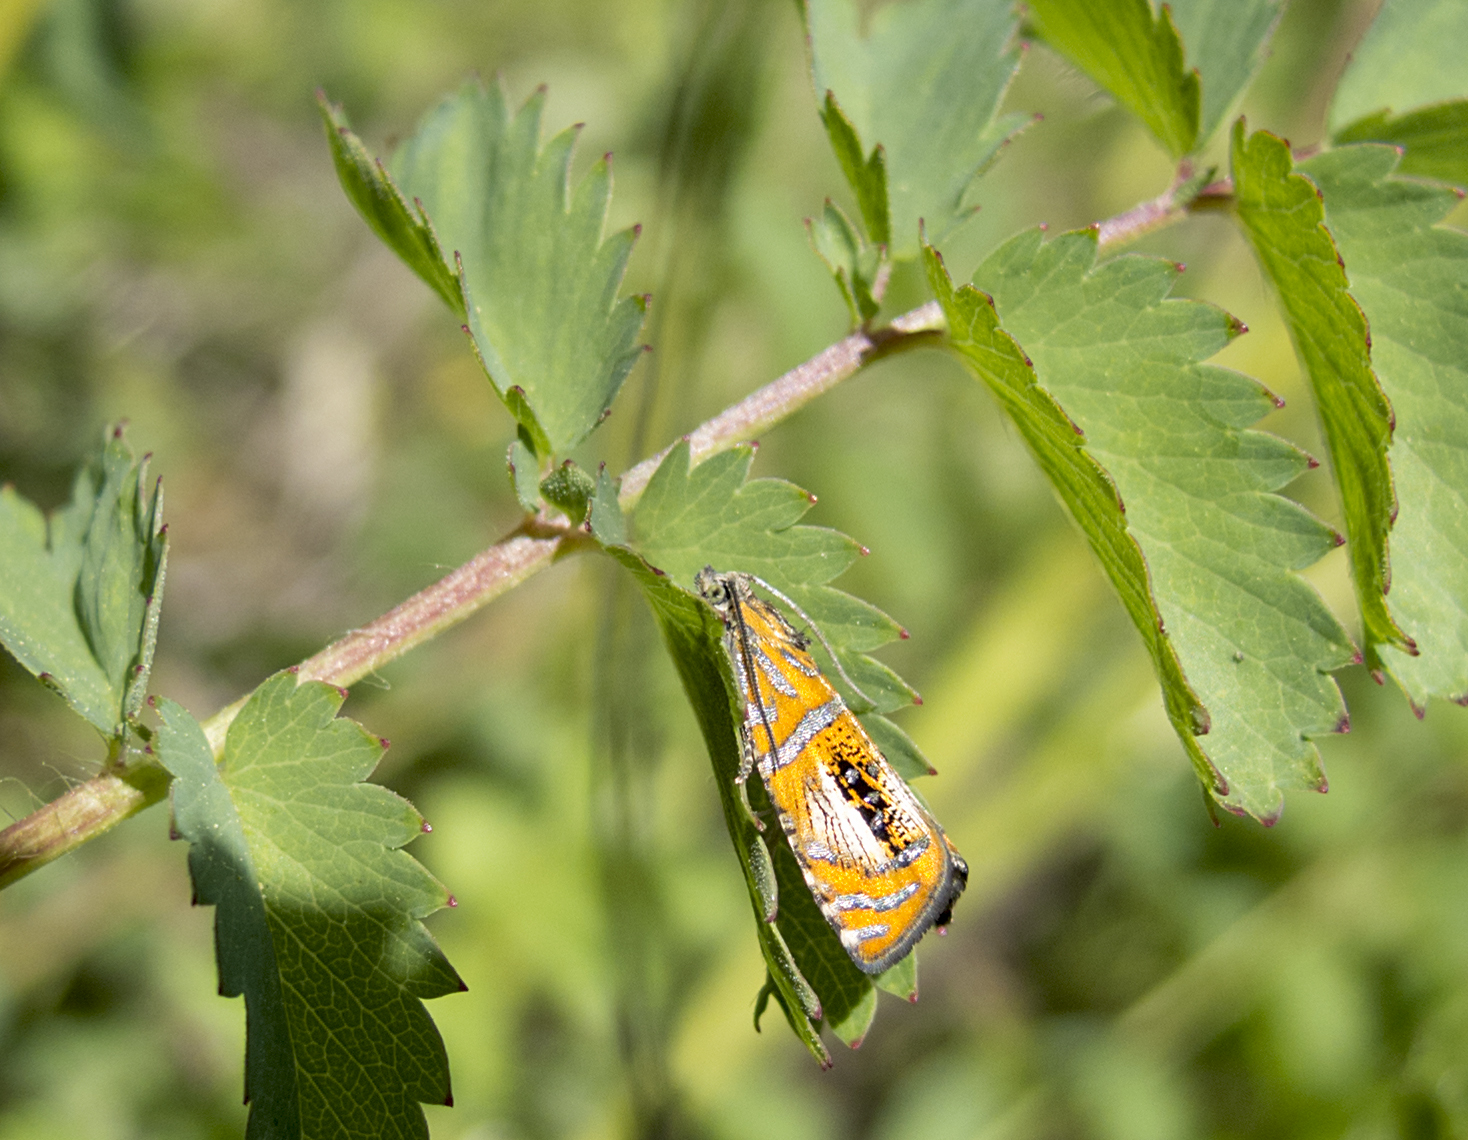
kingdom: Animalia
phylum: Arthropoda
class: Insecta
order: Lepidoptera
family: Tortricidae
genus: Olethreutes
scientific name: Olethreutes arcuella
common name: Arched marble
